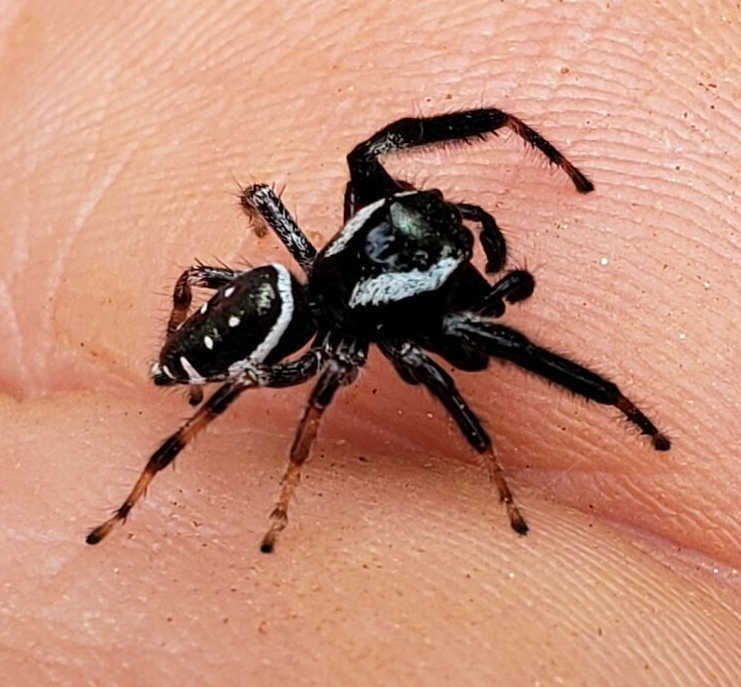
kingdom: Animalia
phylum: Arthropoda
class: Arachnida
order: Araneae
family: Salticidae
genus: Paraphidippus
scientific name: Paraphidippus aurantius
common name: Jumping spiders
